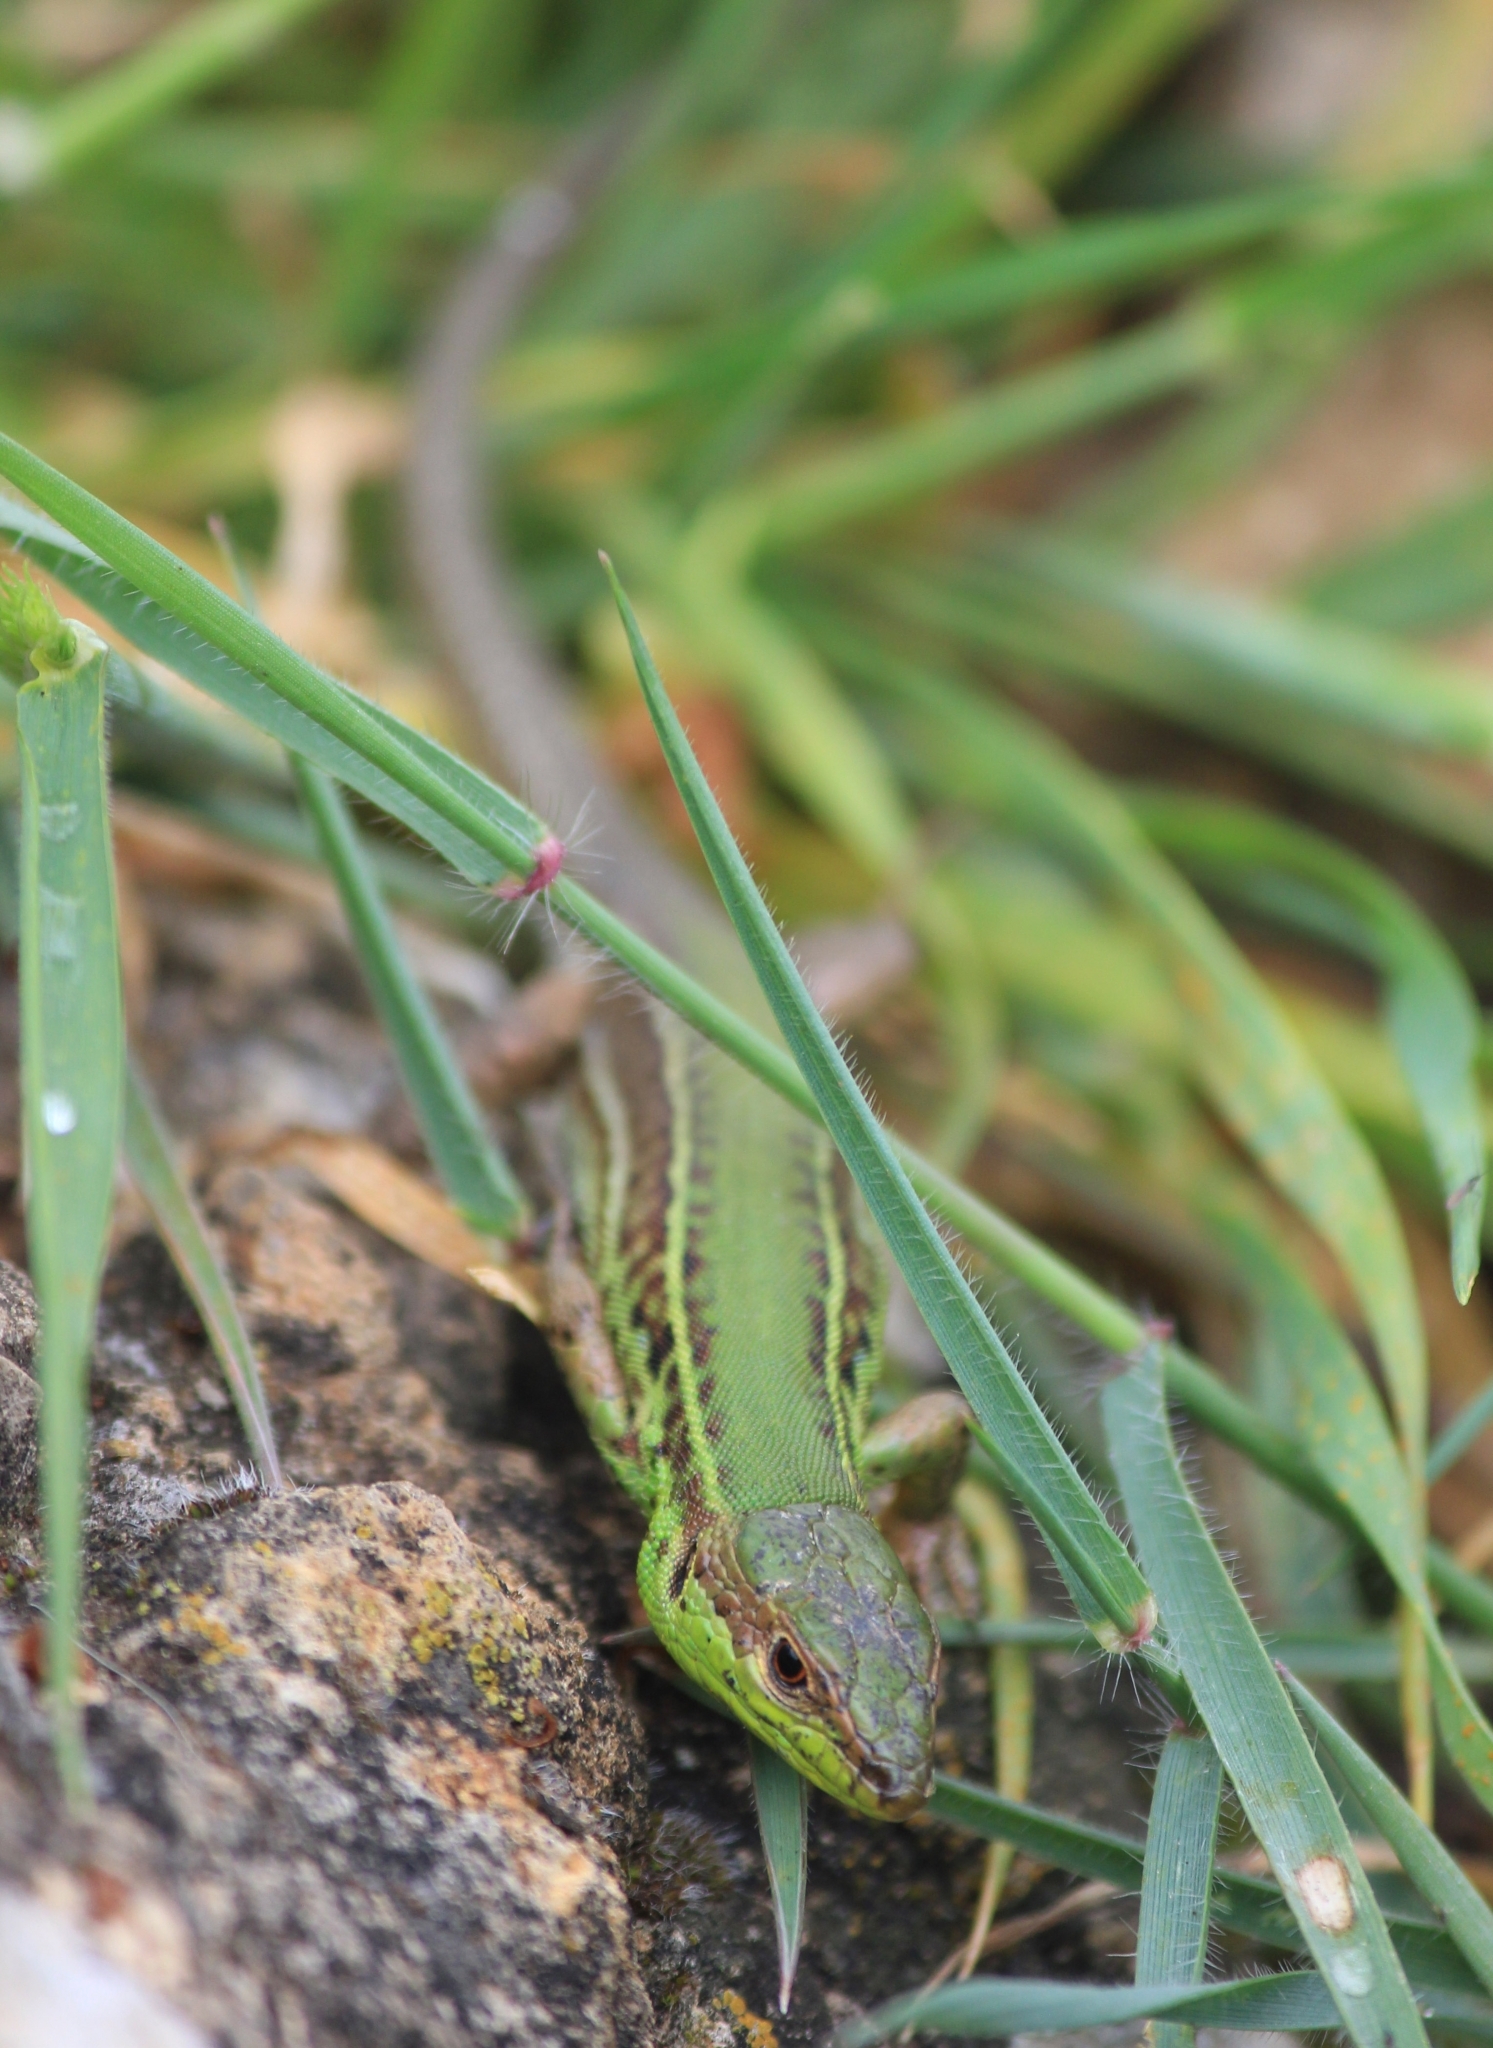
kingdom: Animalia
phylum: Chordata
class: Squamata
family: Lacertidae
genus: Podarcis
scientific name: Podarcis ionicus
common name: Ionian wall lizard
